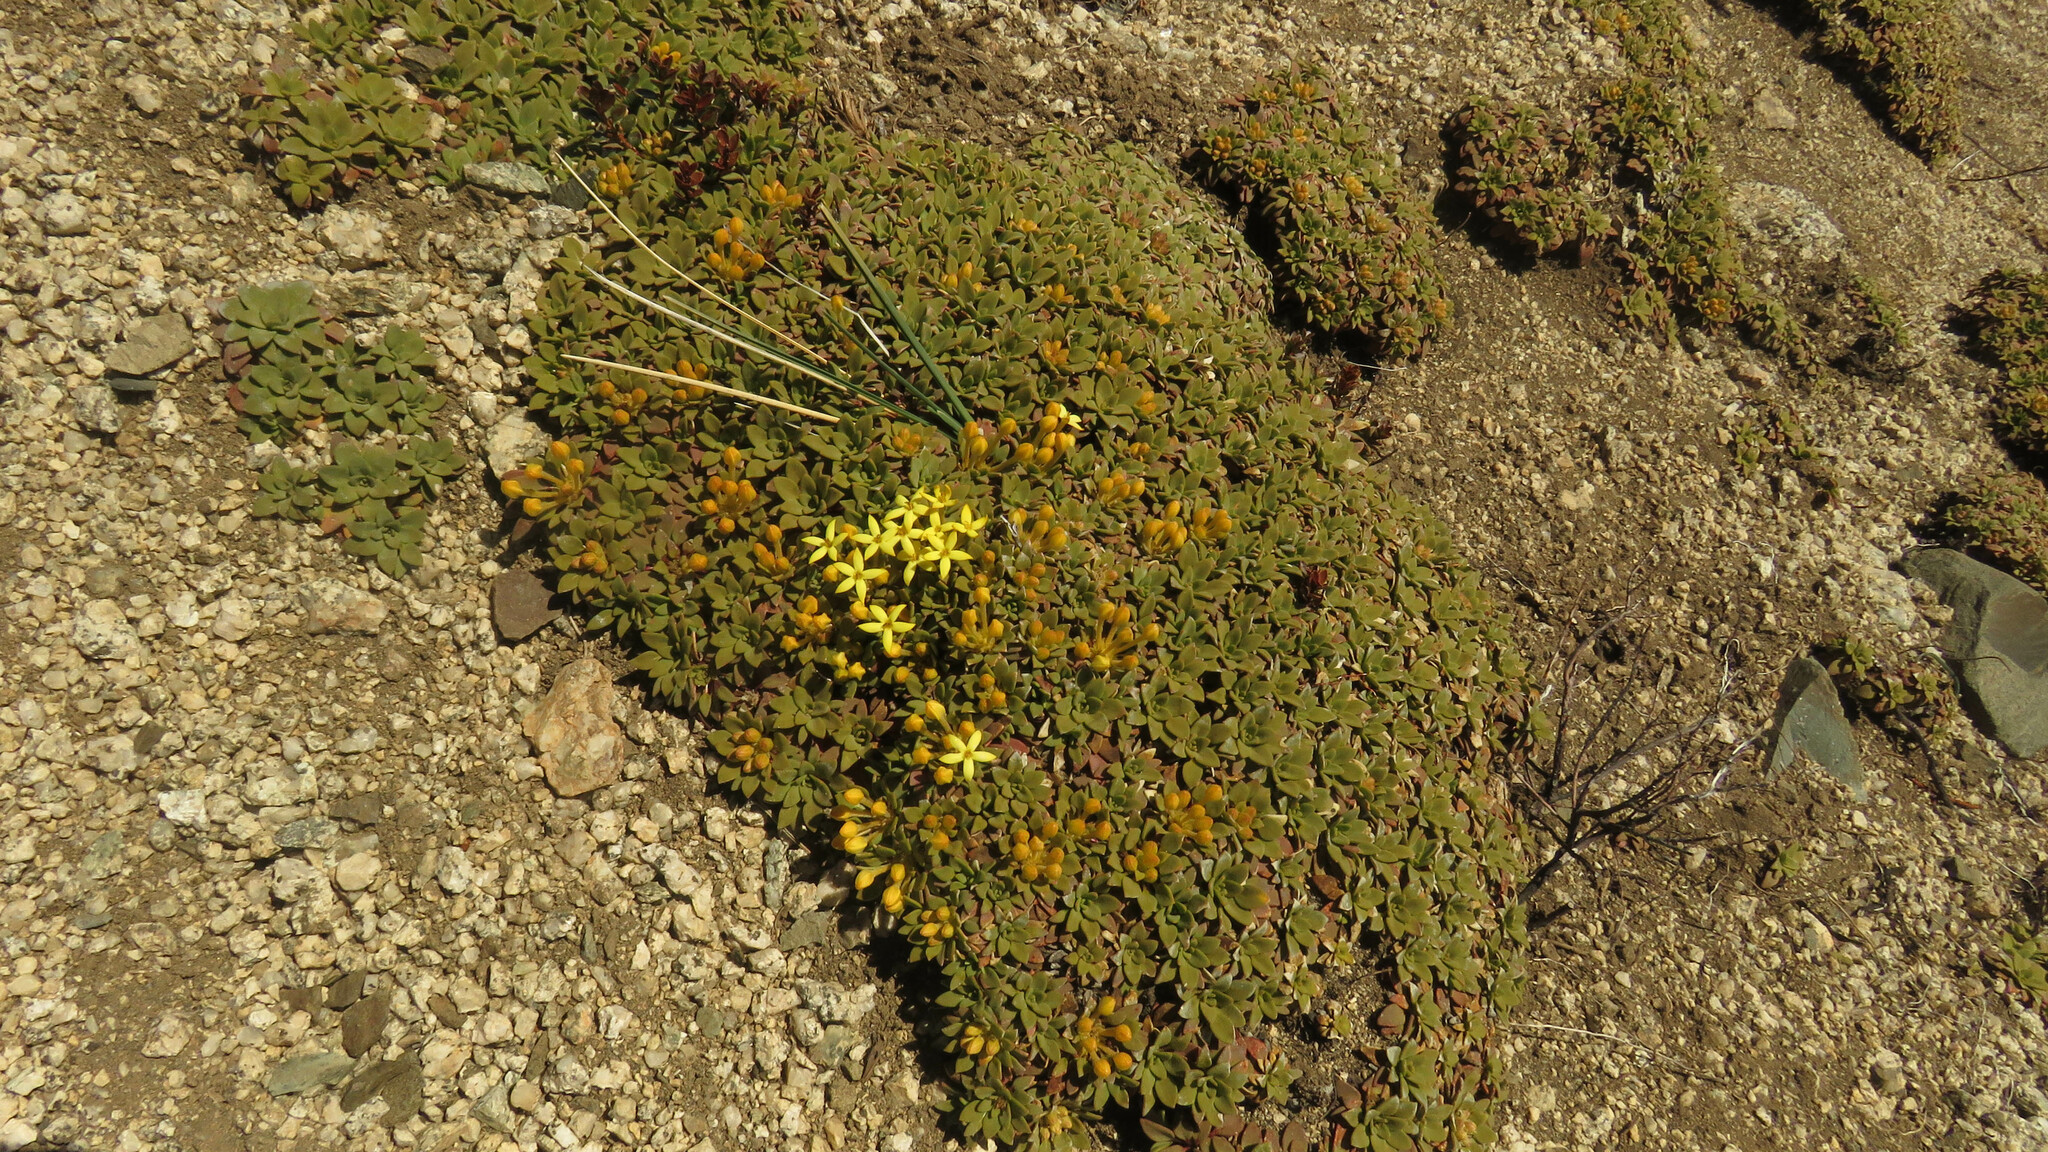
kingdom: Plantae
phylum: Tracheophyta
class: Magnoliopsida
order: Gentianales
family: Rubiaceae
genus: Oreopolus
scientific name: Oreopolus glacialis
